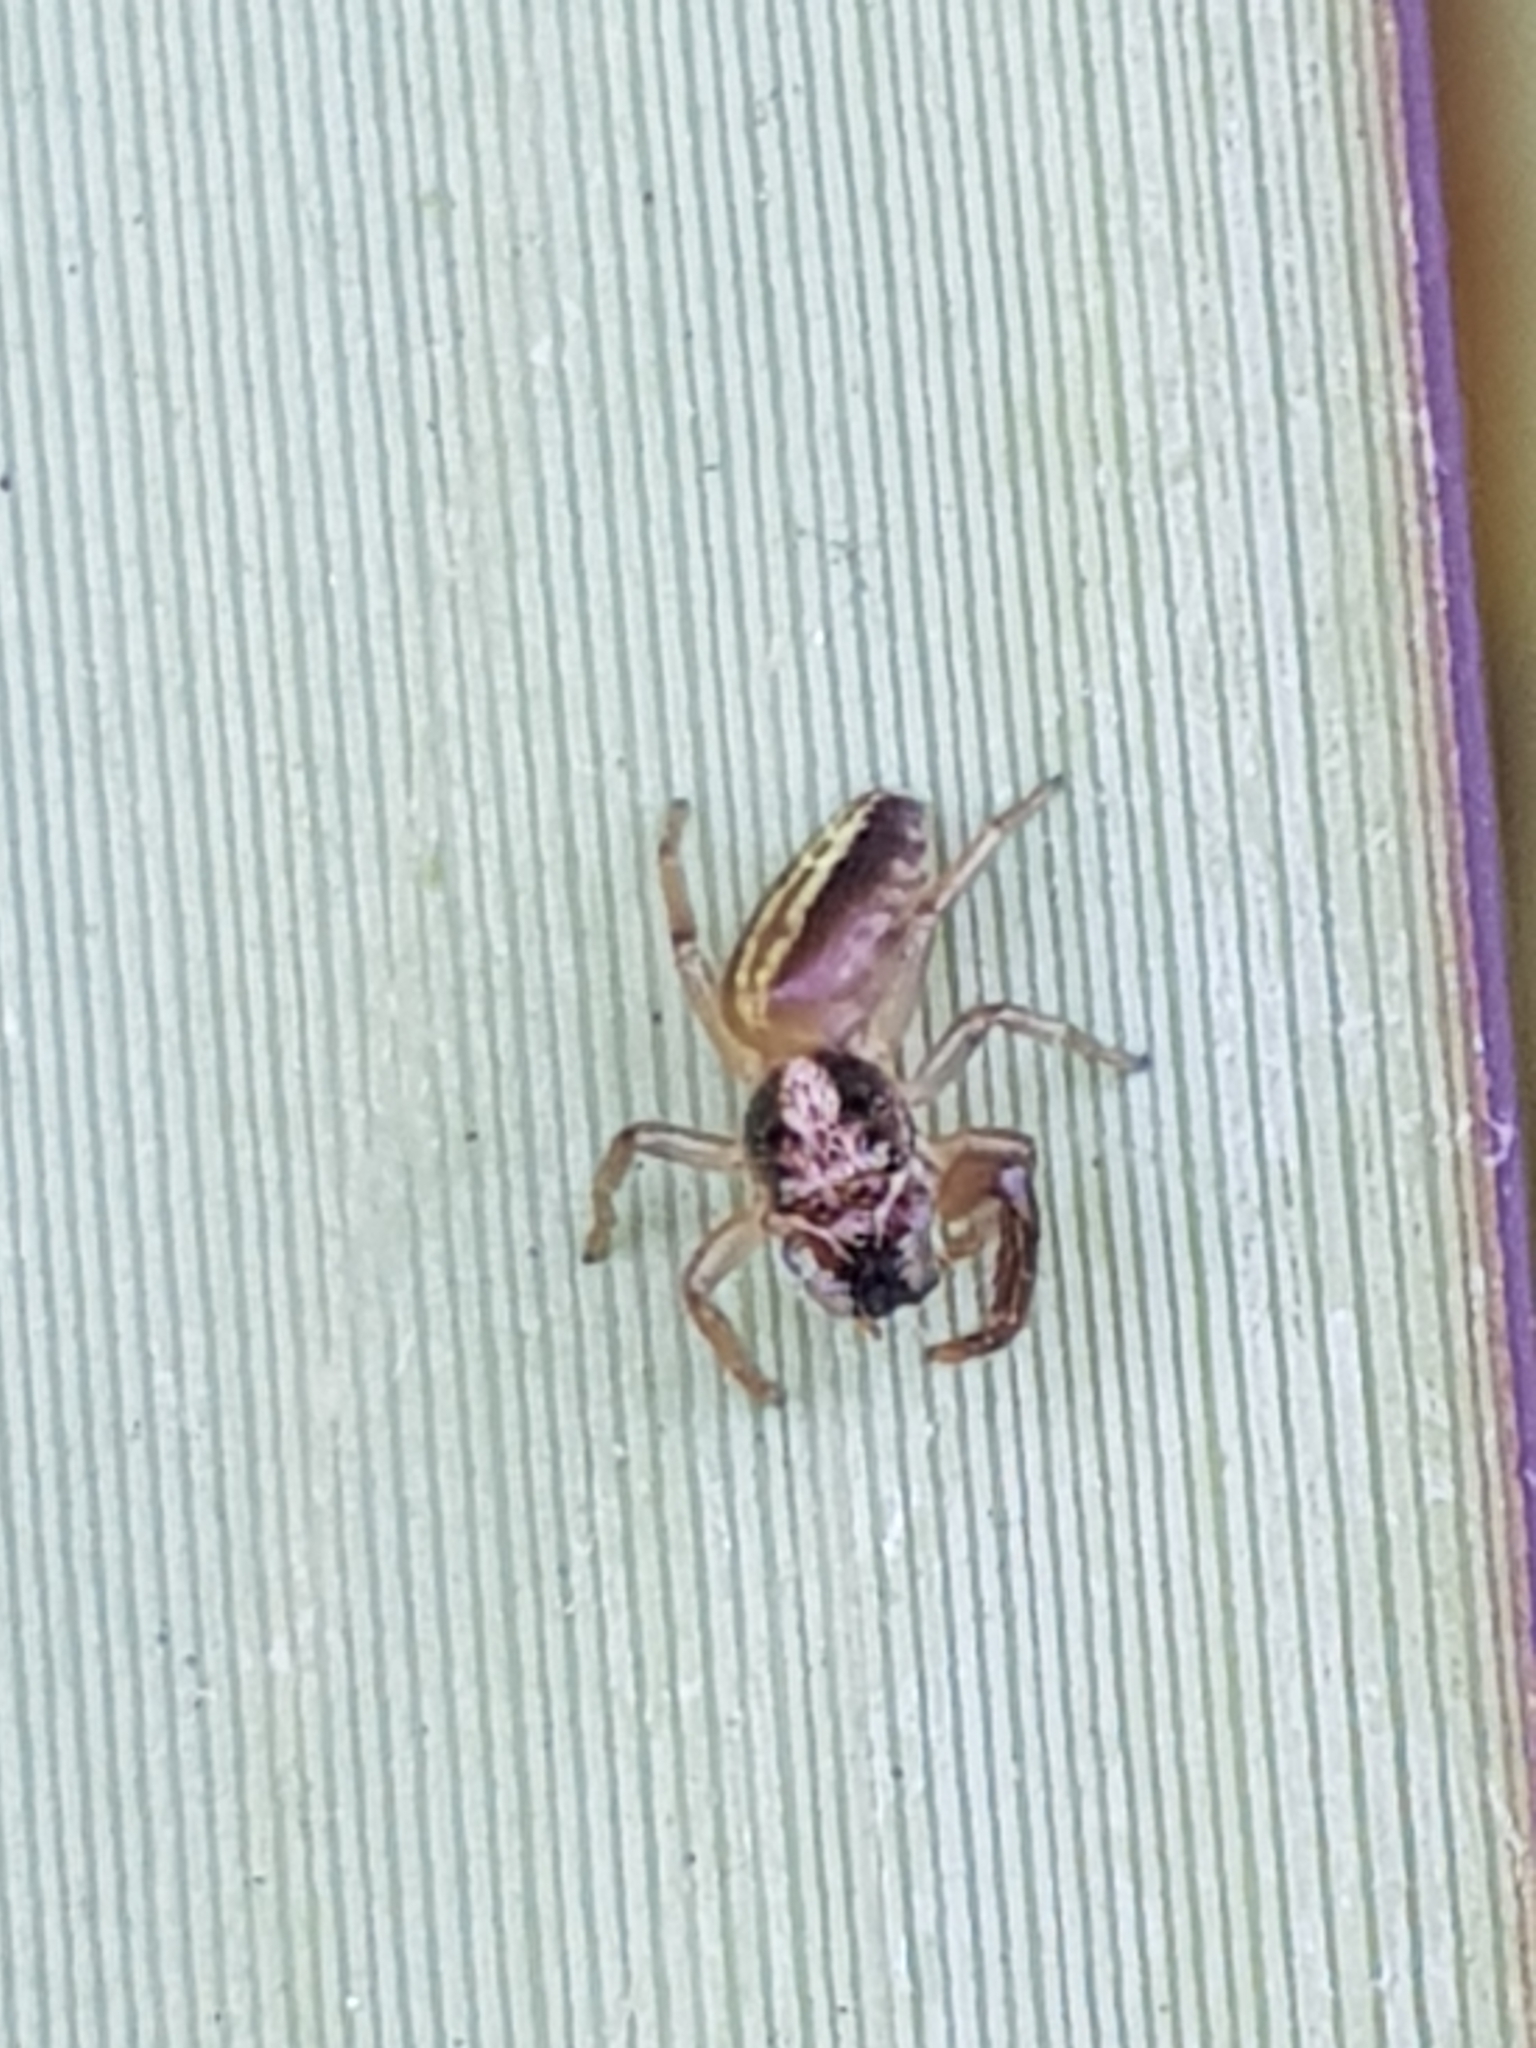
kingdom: Animalia
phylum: Arthropoda
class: Arachnida
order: Araneae
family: Salticidae
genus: Trite
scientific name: Trite planiceps
